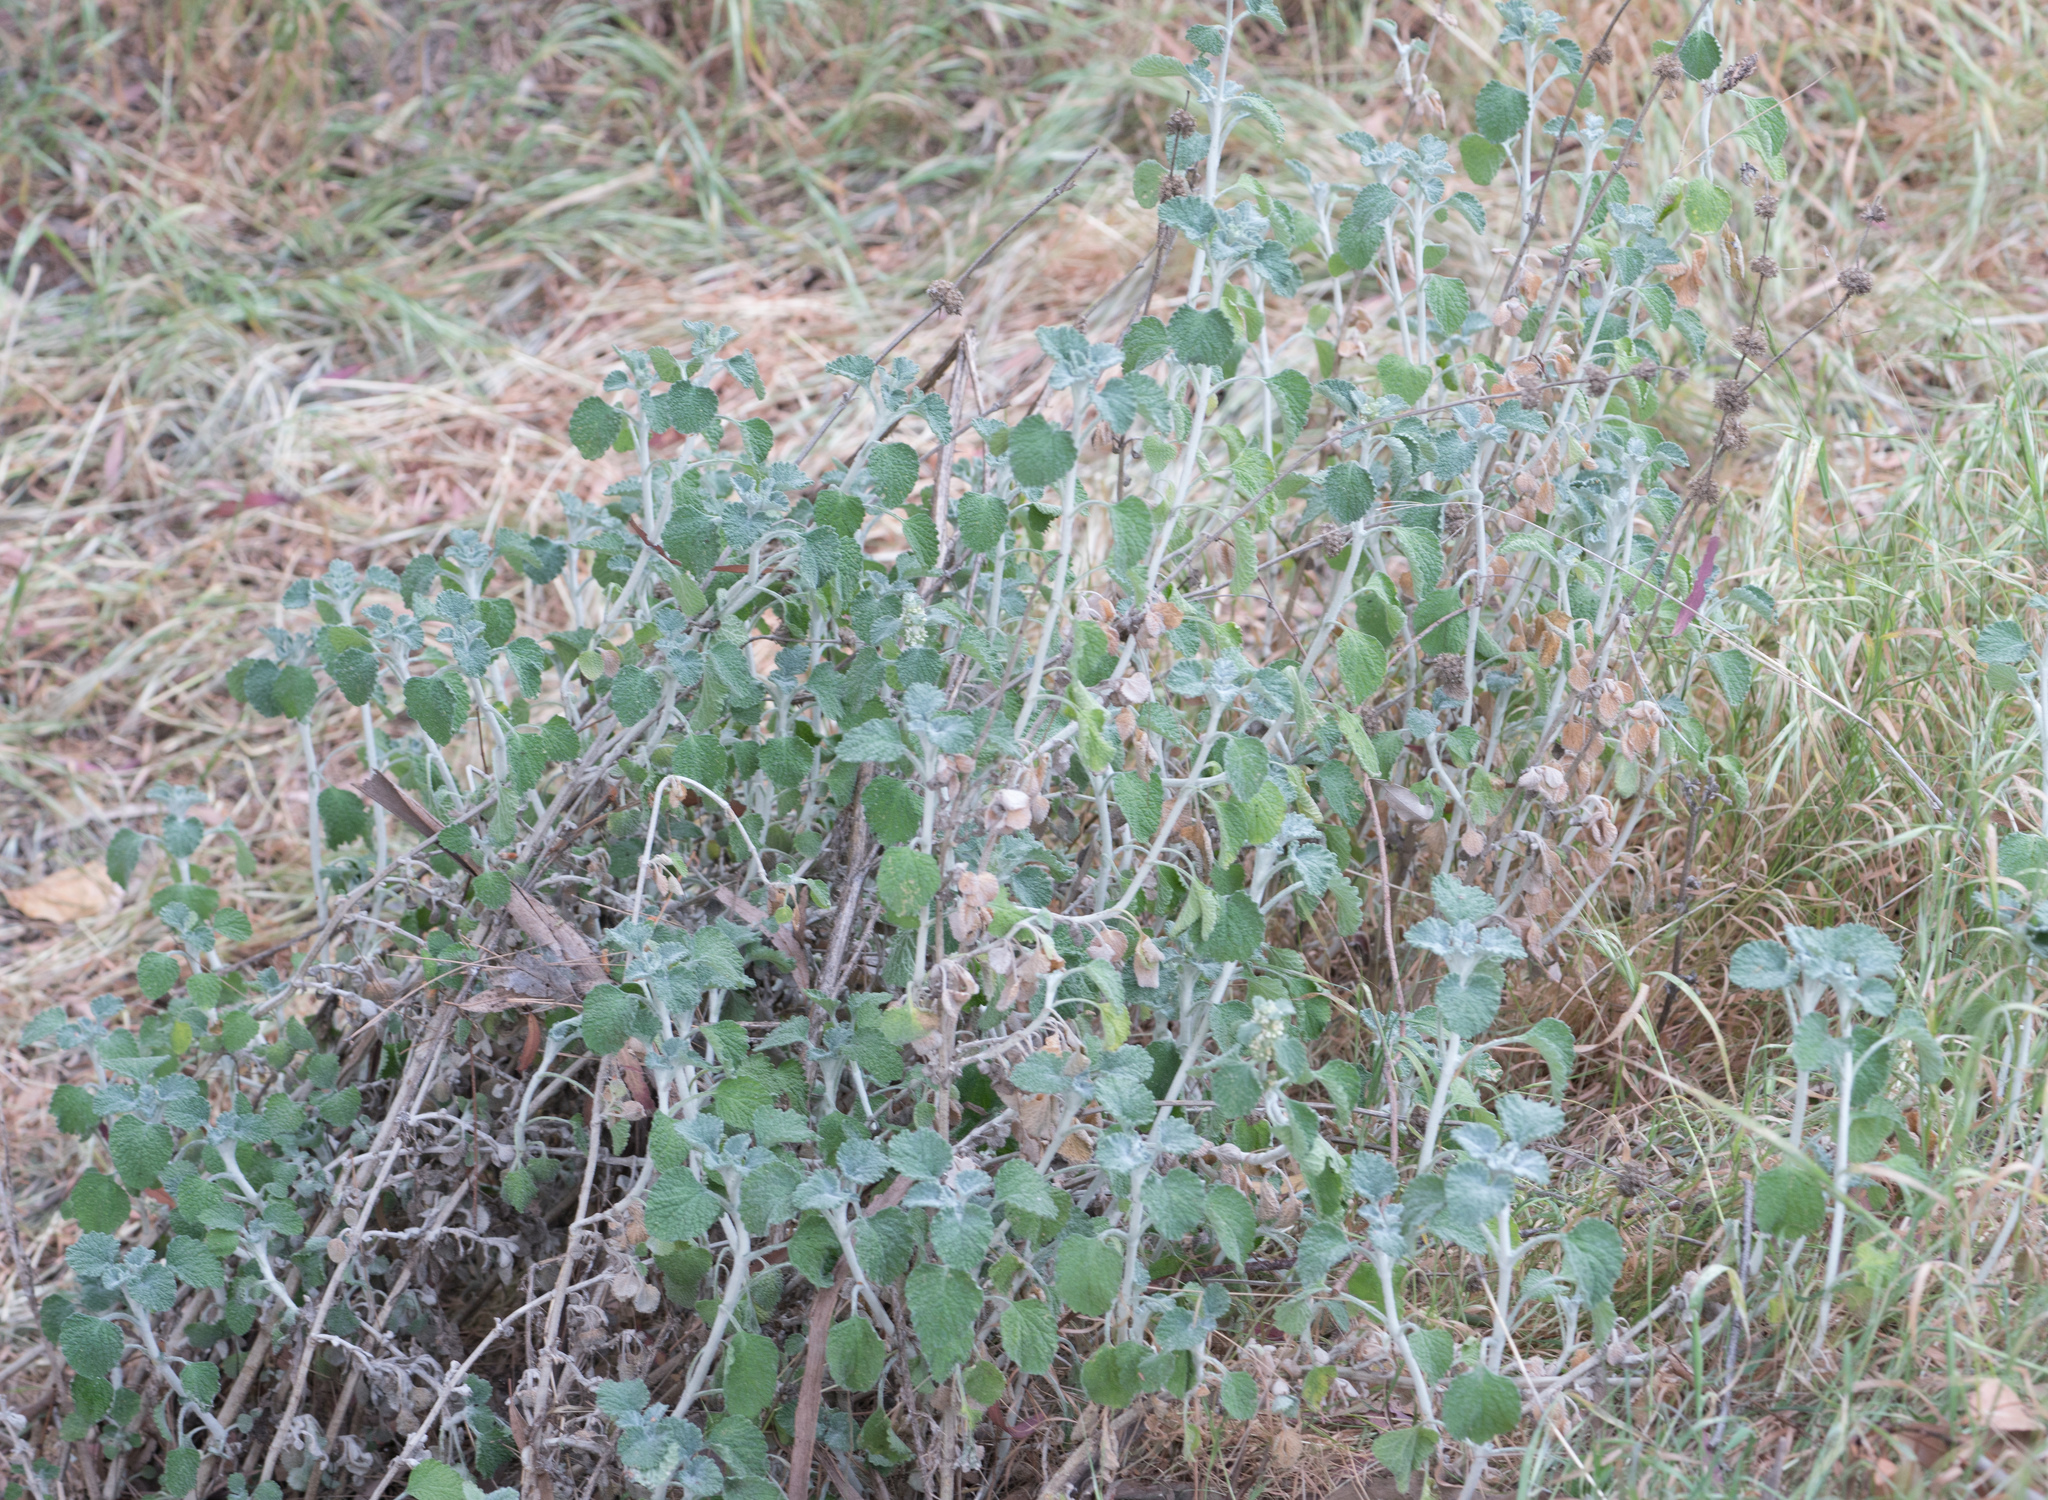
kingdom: Plantae
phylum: Tracheophyta
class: Magnoliopsida
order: Lamiales
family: Lamiaceae
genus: Marrubium
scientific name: Marrubium vulgare
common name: Horehound
